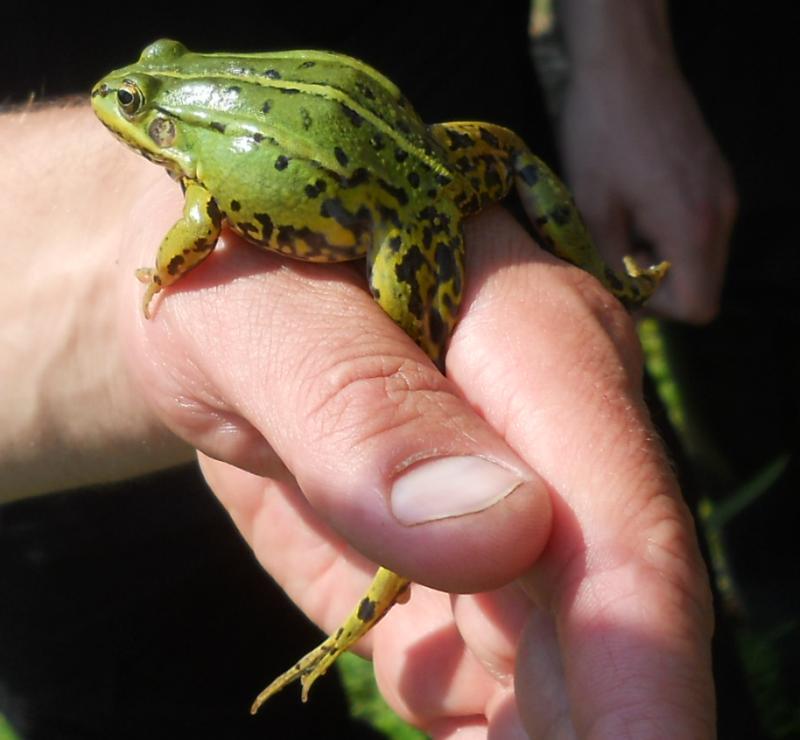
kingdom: Animalia
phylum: Chordata
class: Amphibia
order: Anura
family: Ranidae
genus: Pelophylax
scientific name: Pelophylax
